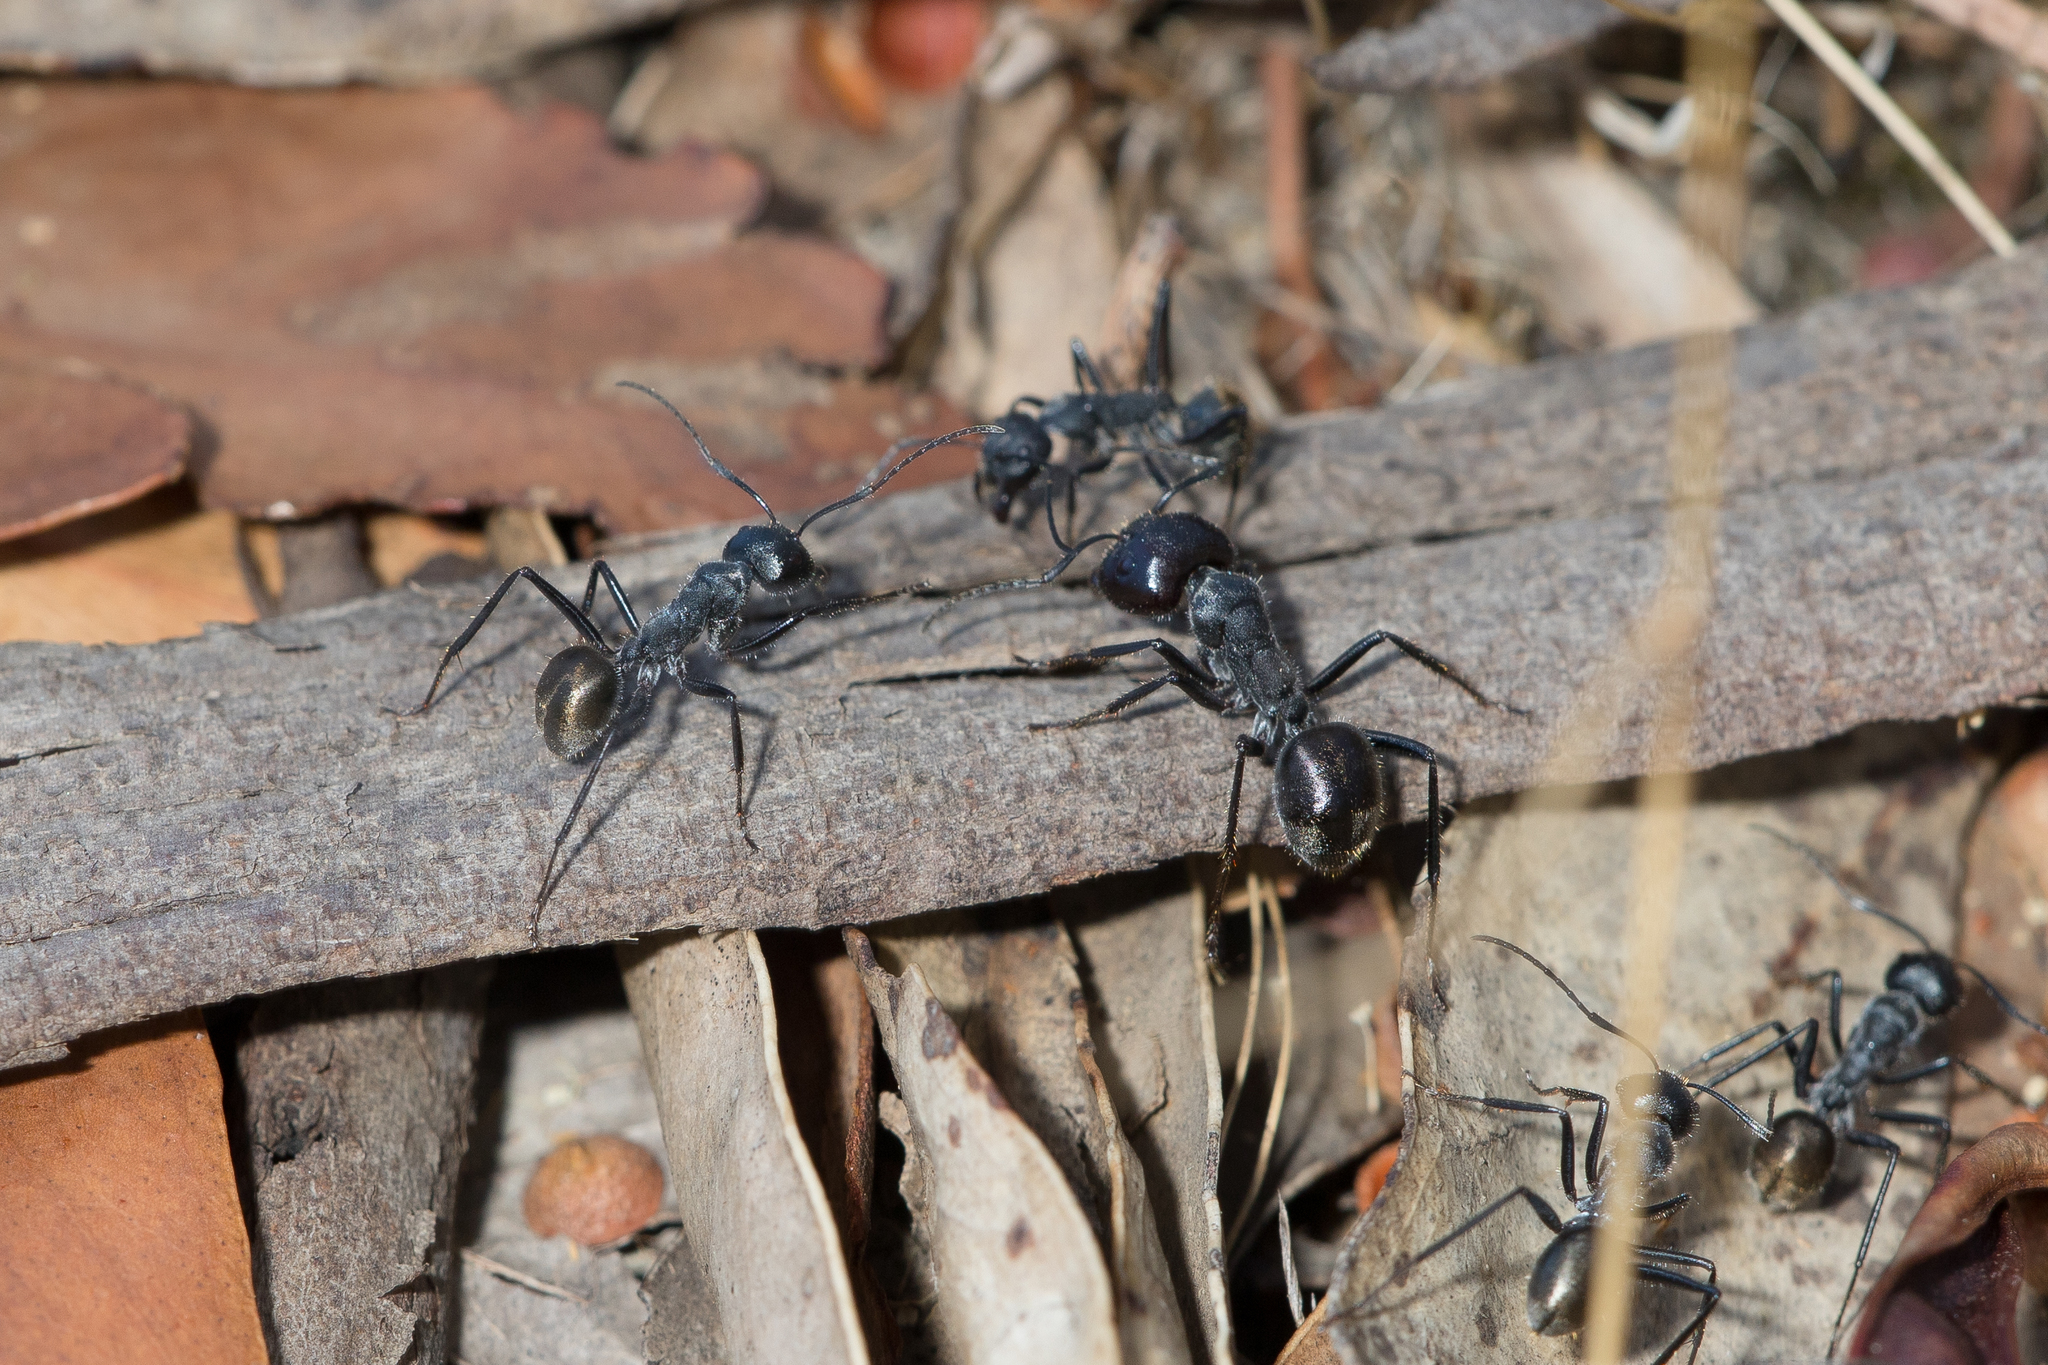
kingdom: Animalia
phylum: Arthropoda
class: Insecta
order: Hymenoptera
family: Formicidae
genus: Camponotus
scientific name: Camponotus suffusus
